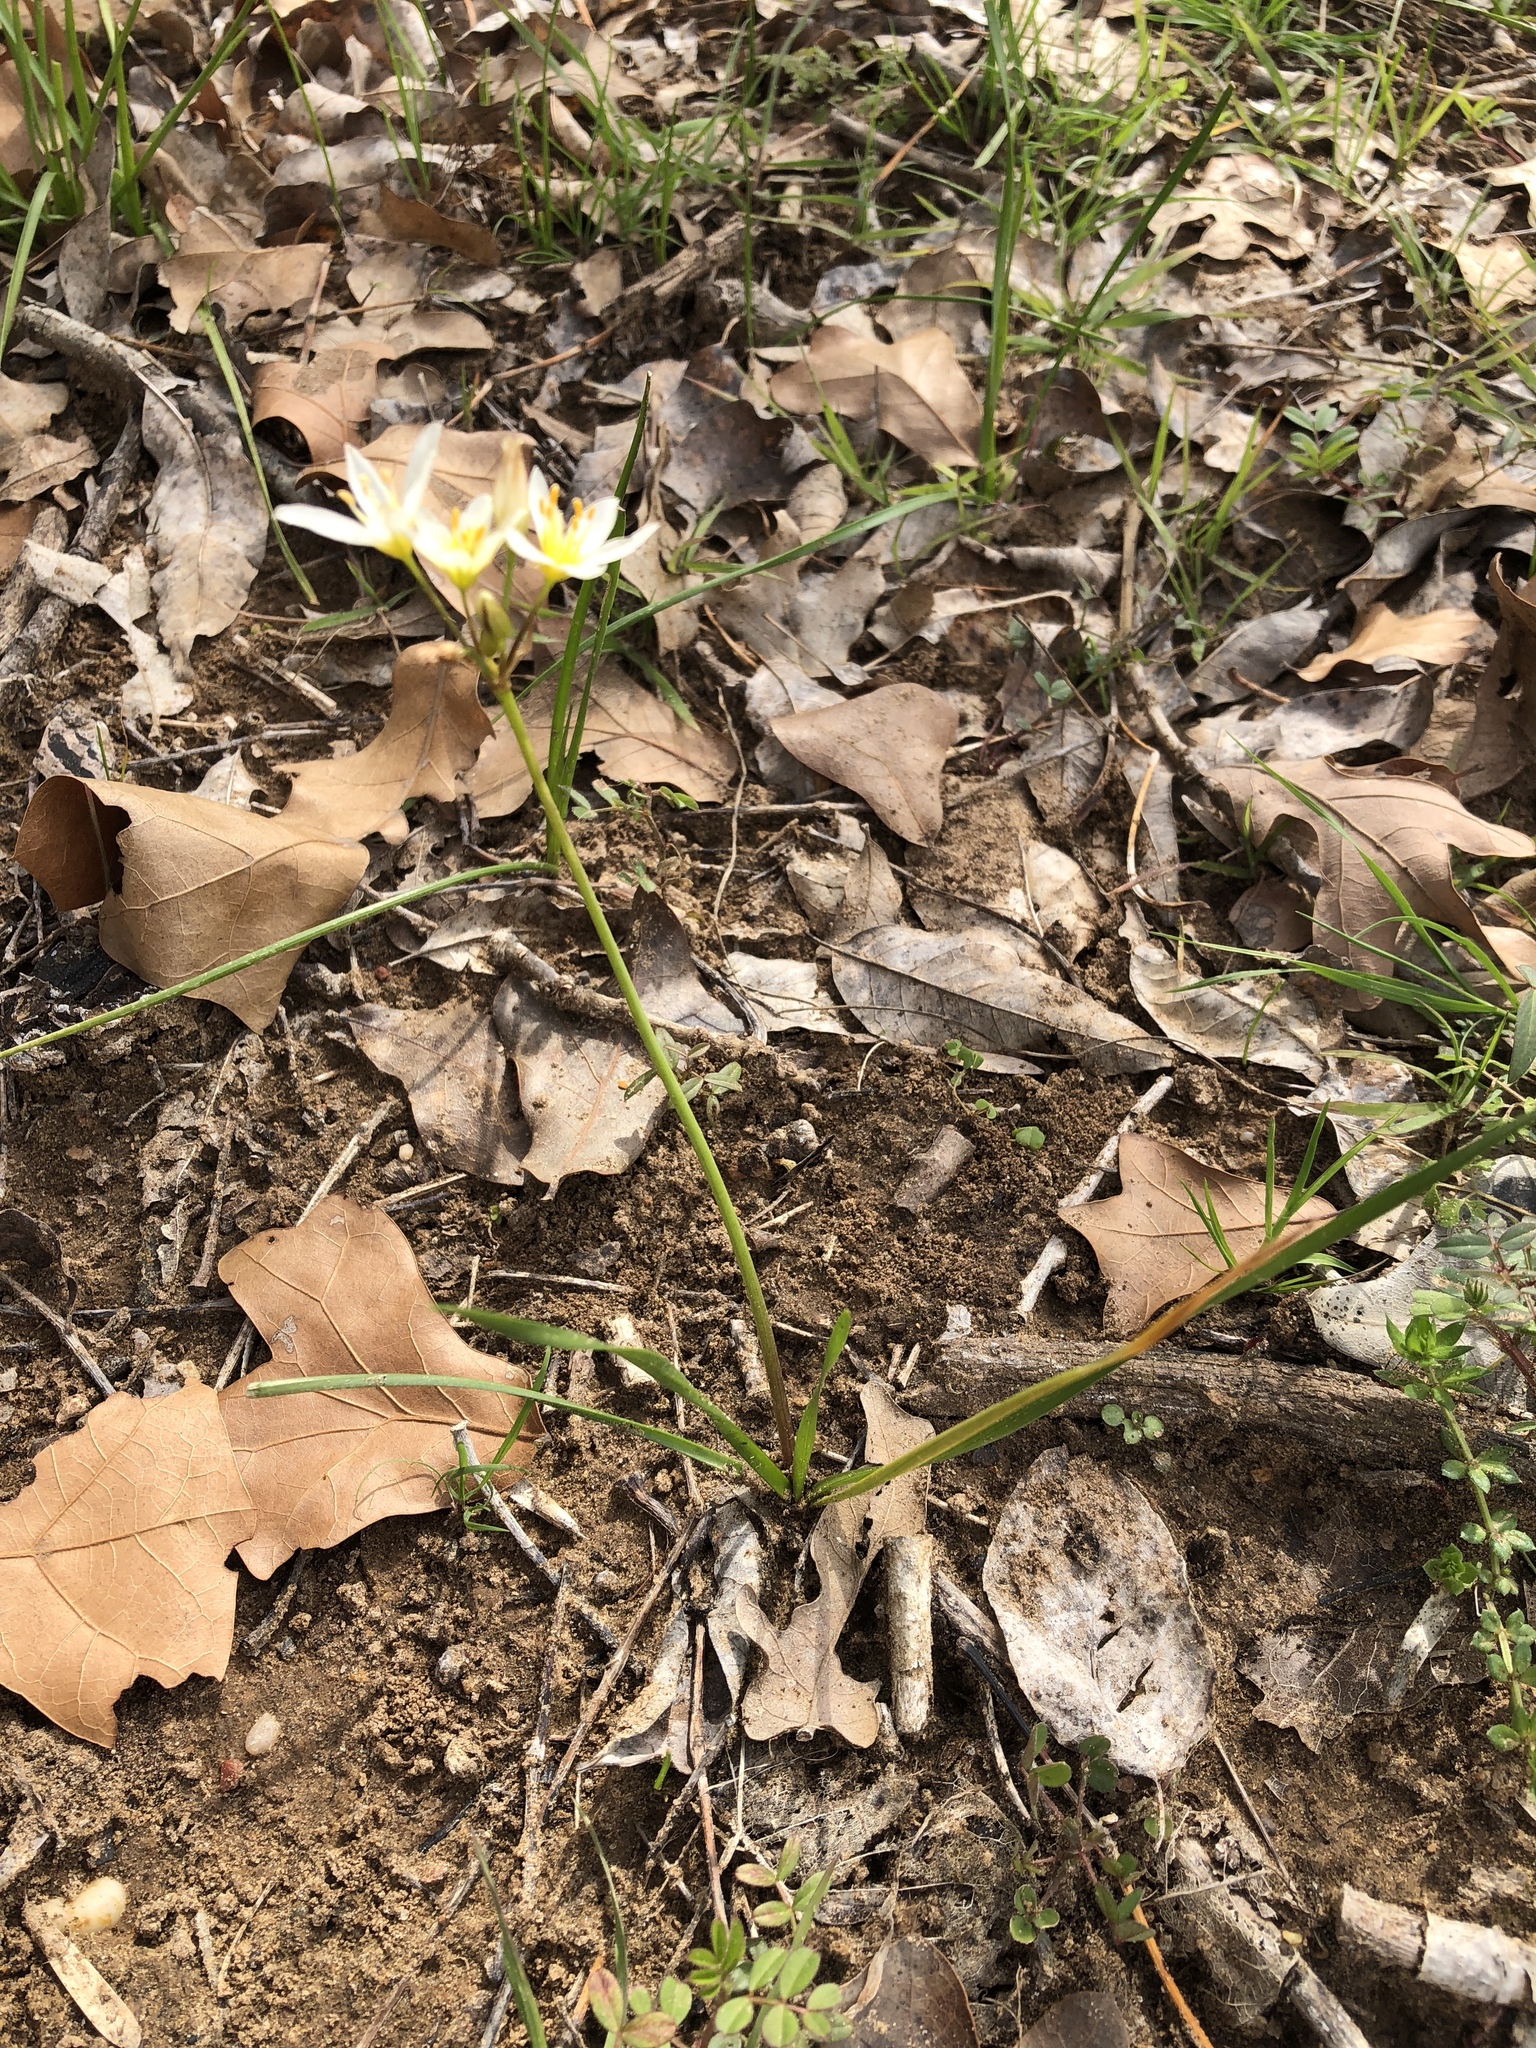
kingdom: Plantae
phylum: Tracheophyta
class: Liliopsida
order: Asparagales
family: Amaryllidaceae
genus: Nothoscordum
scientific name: Nothoscordum bivalve
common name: Crow-poison
